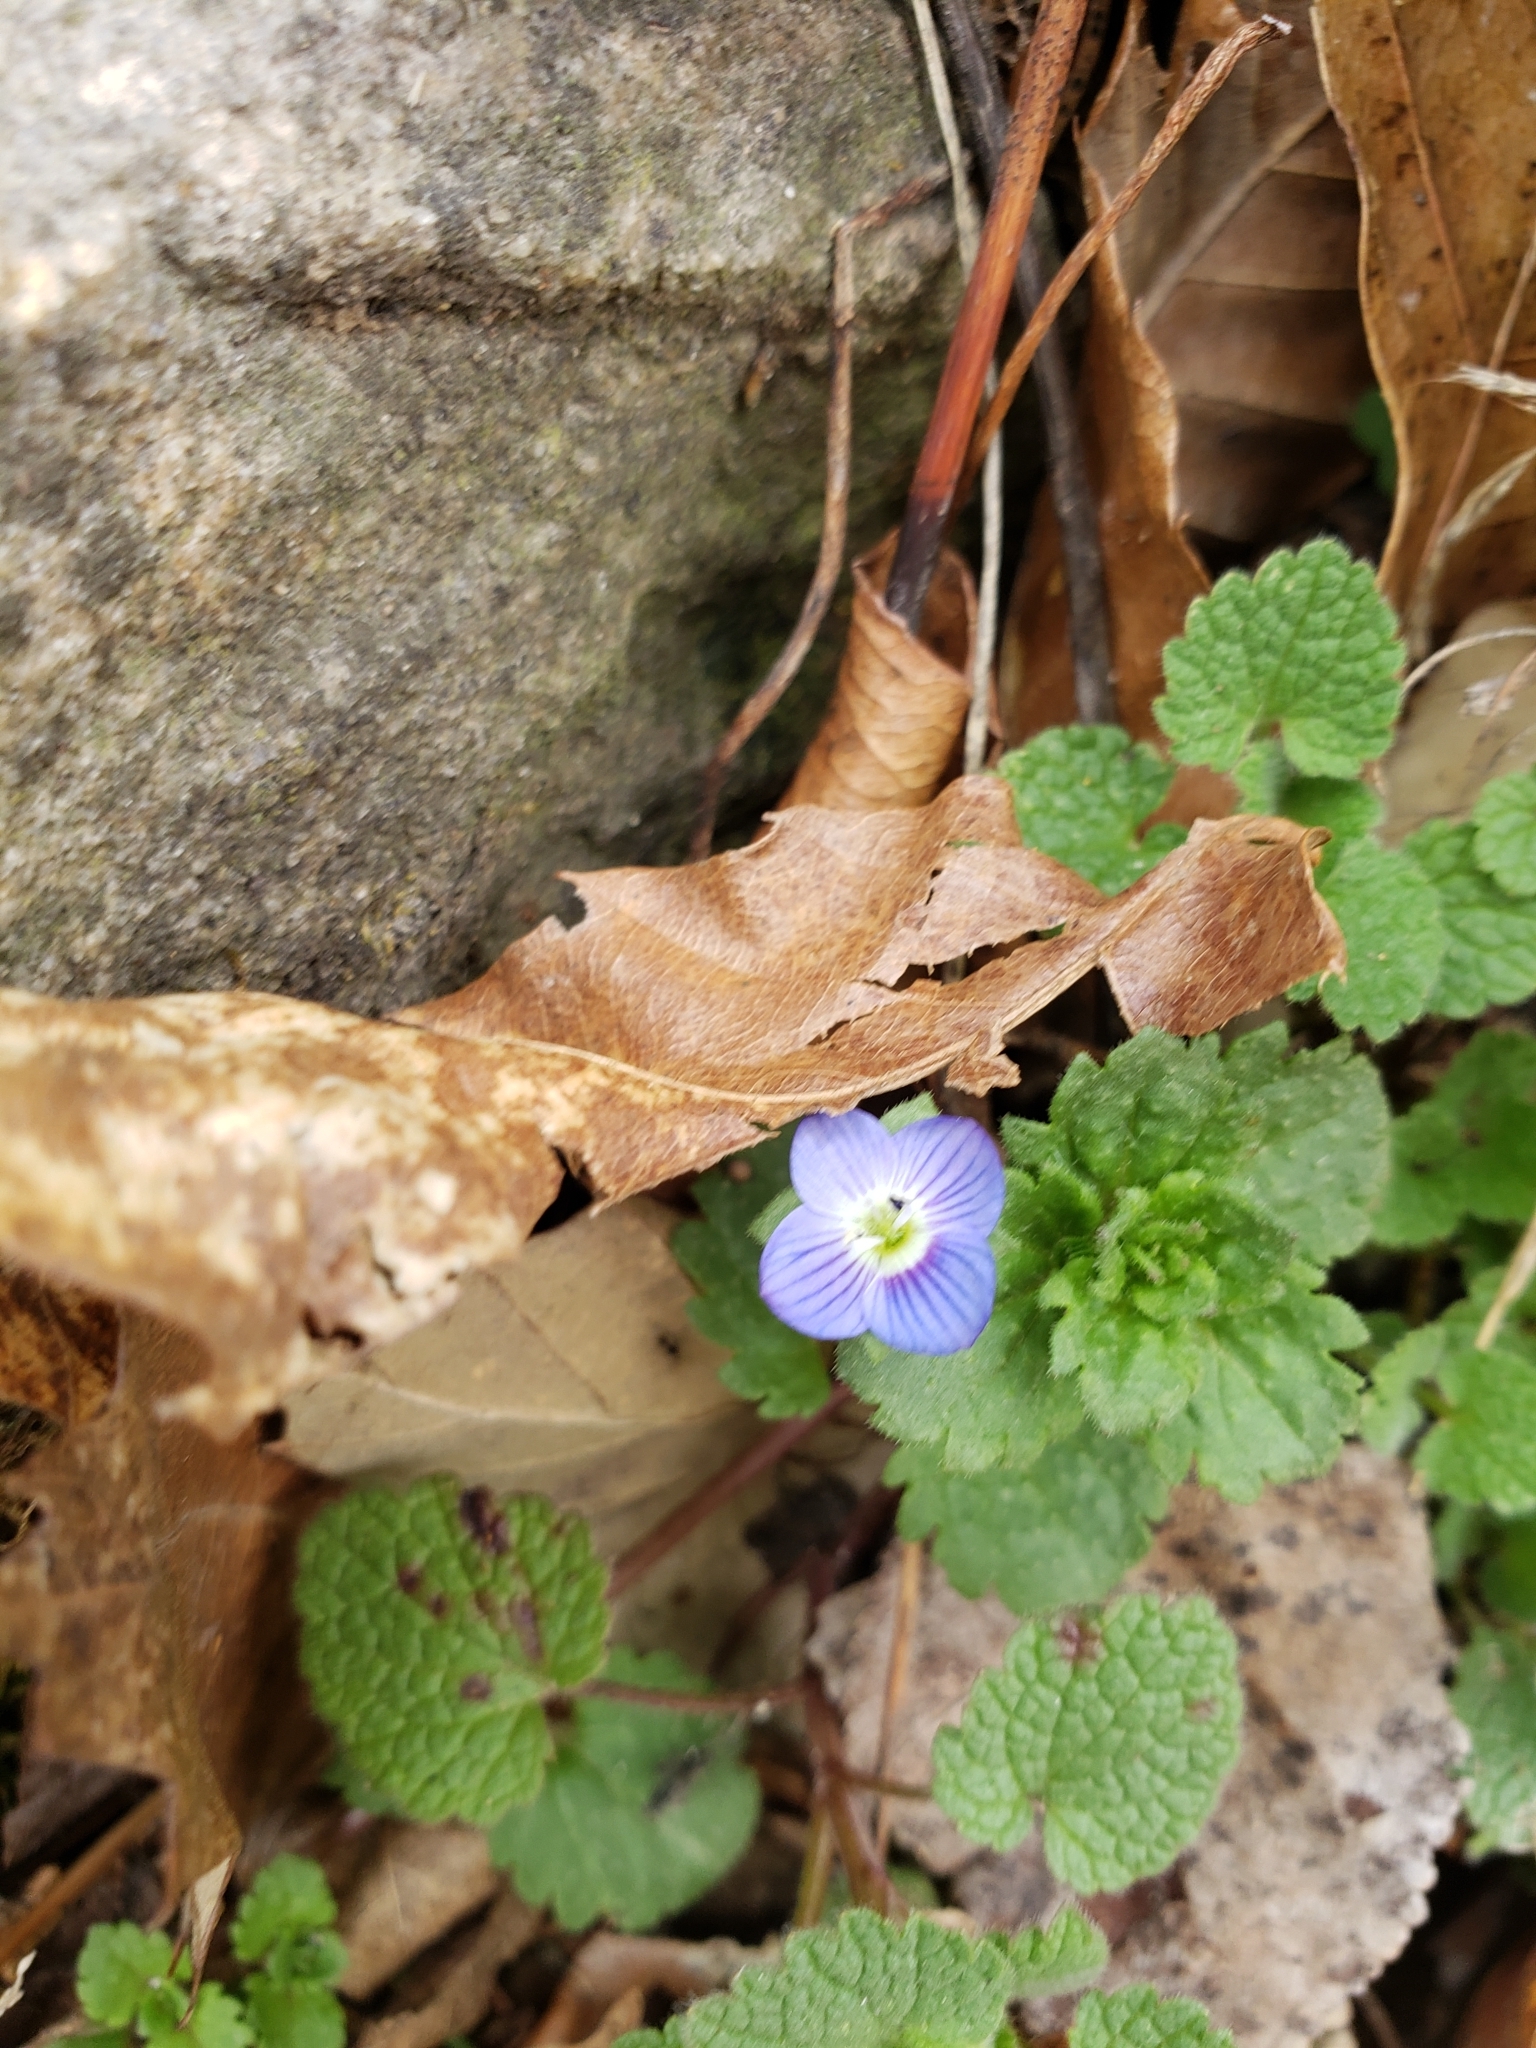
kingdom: Plantae
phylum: Tracheophyta
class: Magnoliopsida
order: Lamiales
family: Plantaginaceae
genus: Veronica
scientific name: Veronica persica
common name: Common field-speedwell
